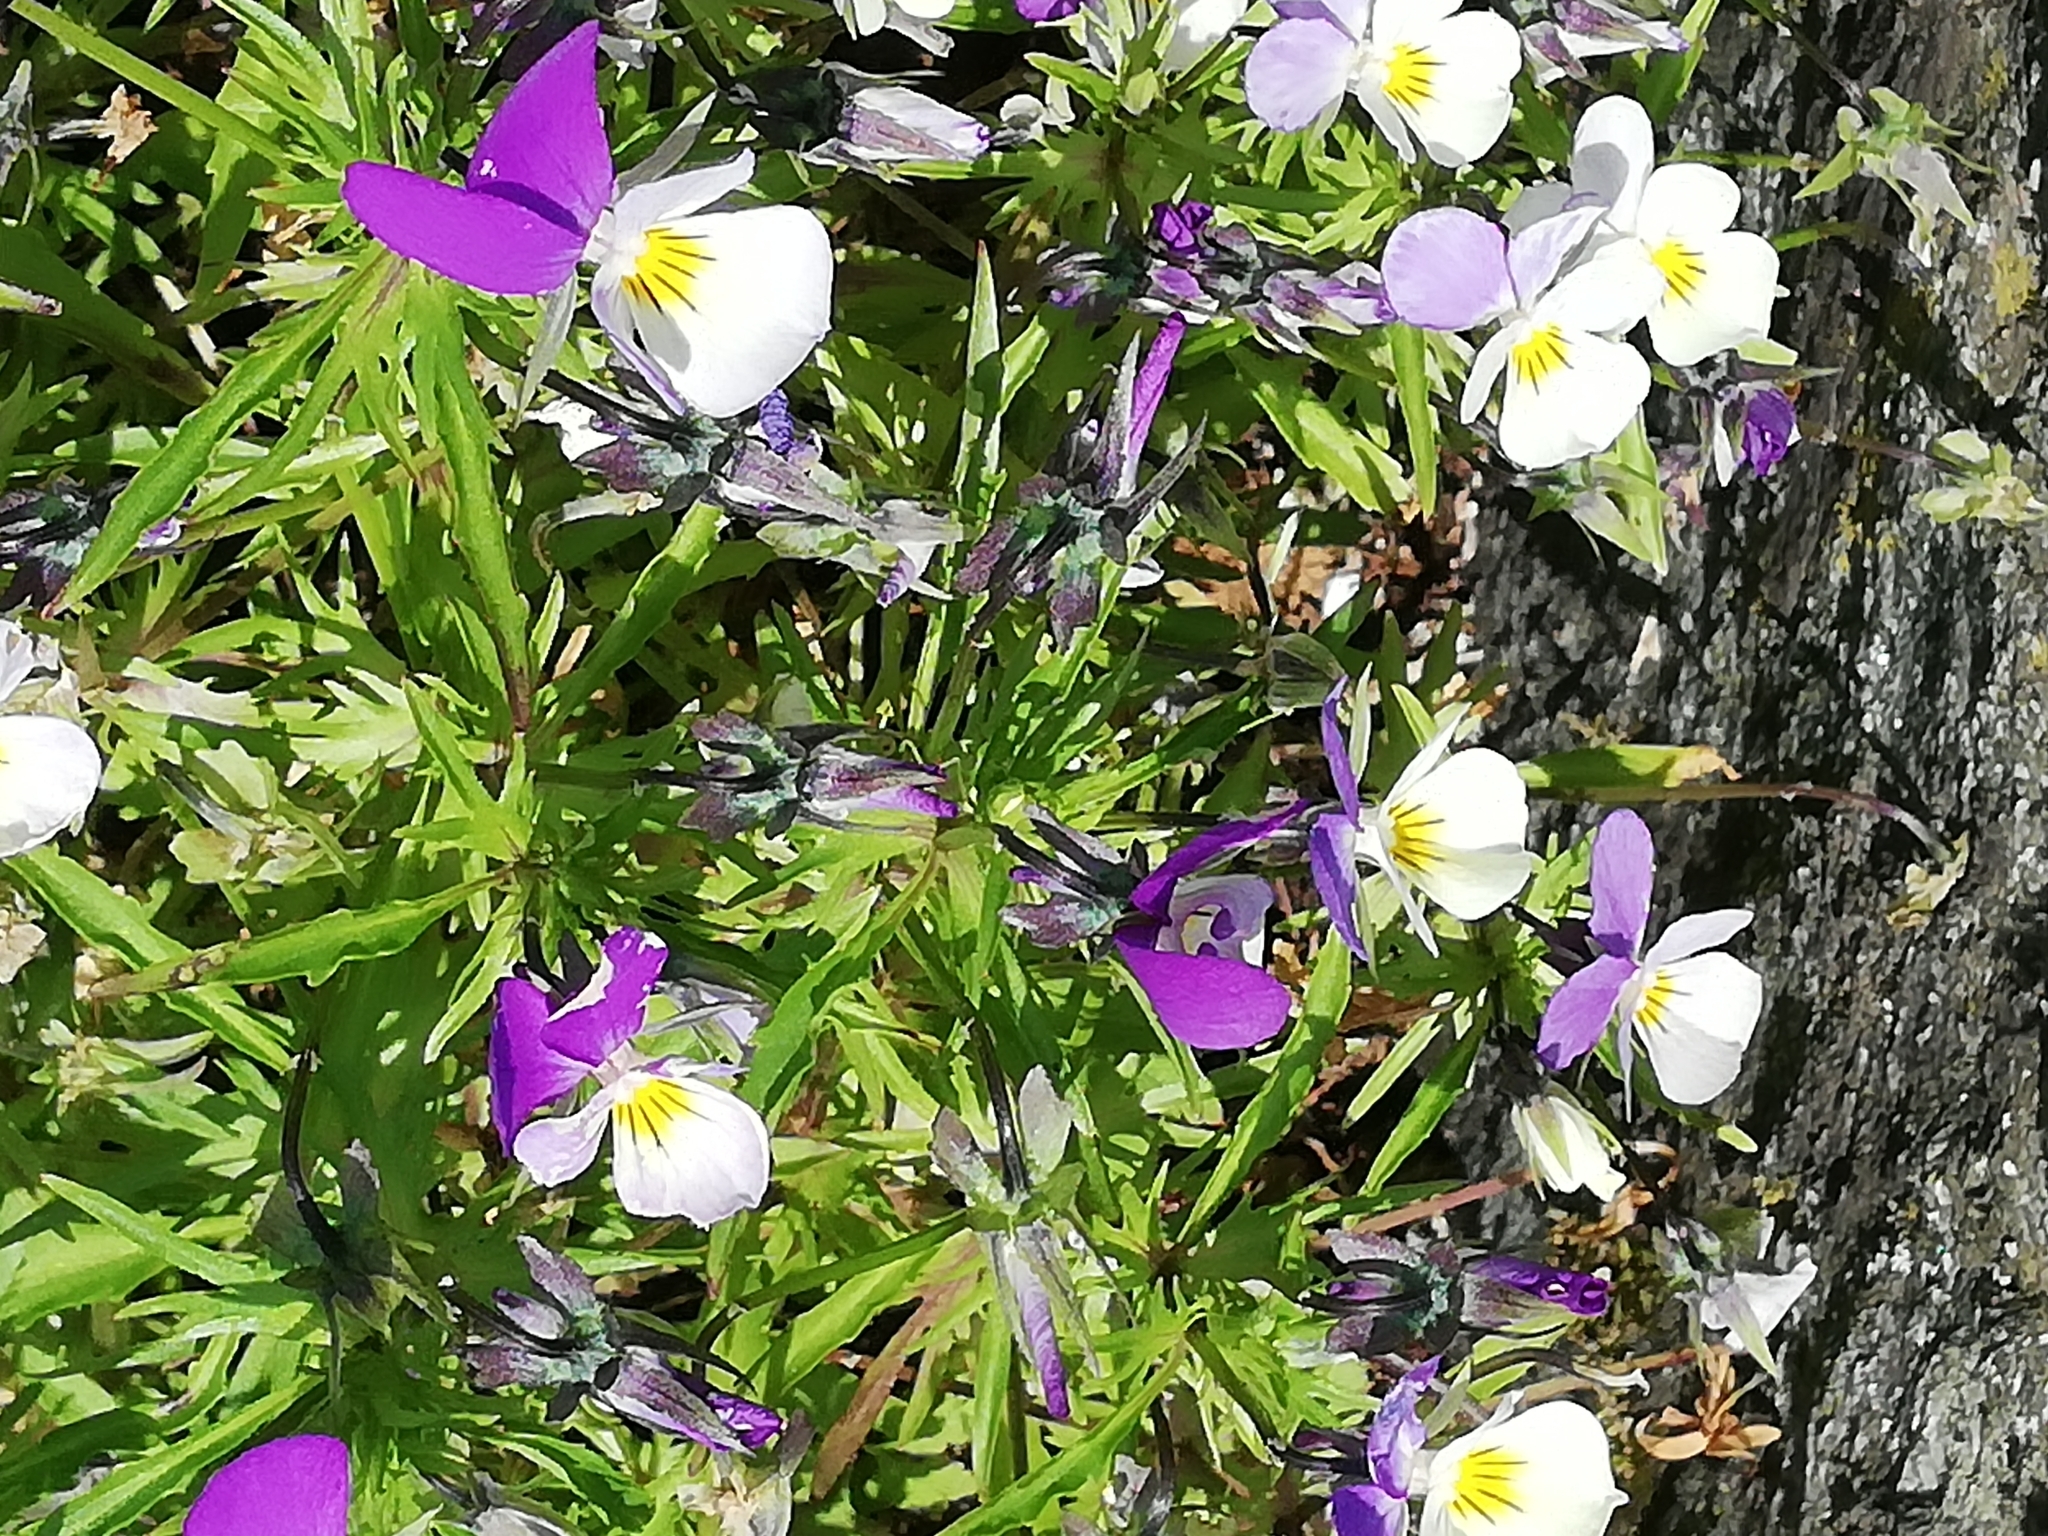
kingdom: Plantae
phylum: Tracheophyta
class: Magnoliopsida
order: Malpighiales
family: Violaceae
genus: Viola
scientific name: Viola tricolor
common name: Pansy
